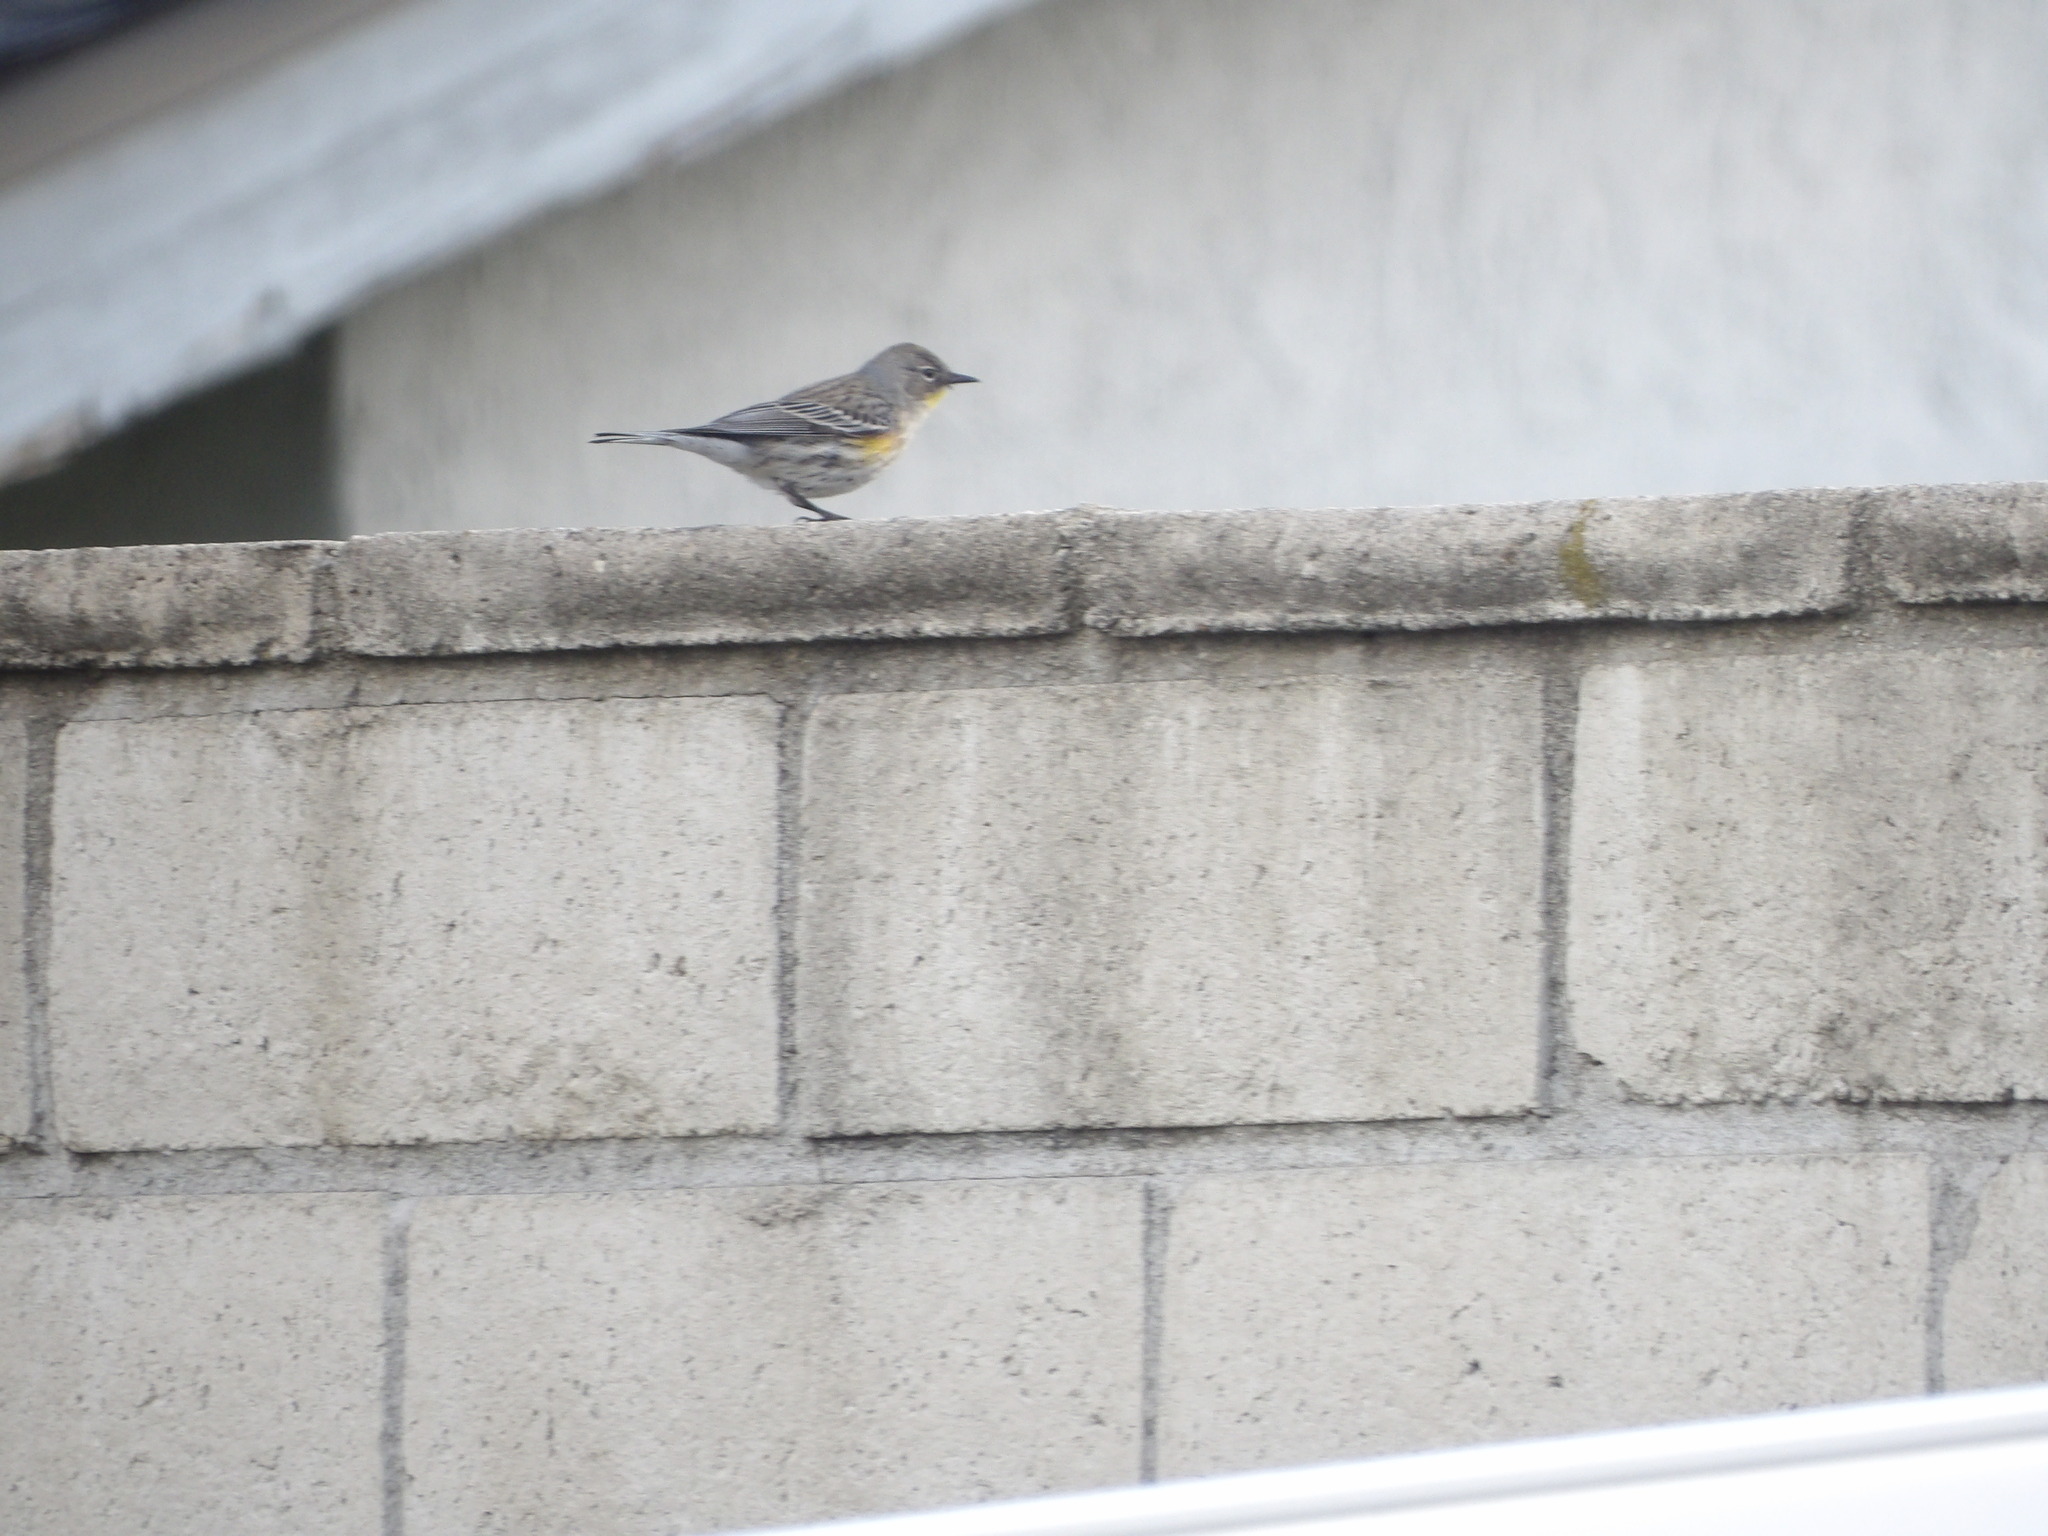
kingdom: Animalia
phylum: Chordata
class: Aves
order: Passeriformes
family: Parulidae
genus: Setophaga
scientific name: Setophaga coronata
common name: Myrtle warbler
